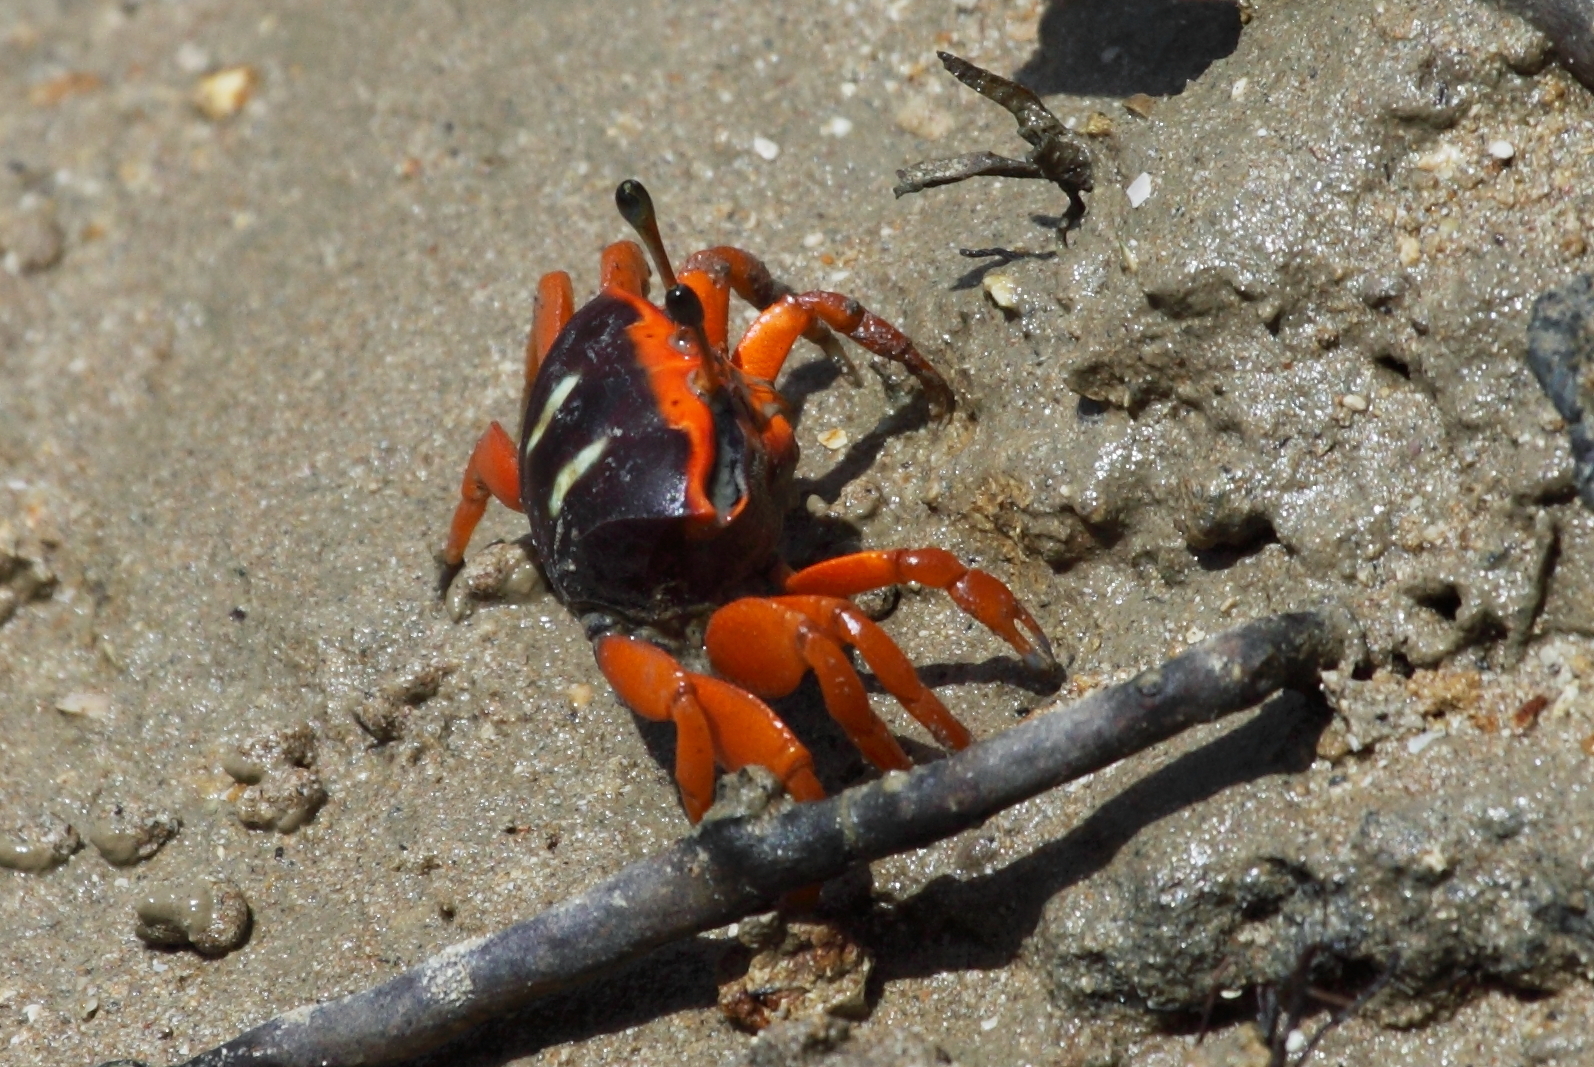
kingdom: Animalia
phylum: Arthropoda
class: Malacostraca
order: Decapoda
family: Ocypodidae
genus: Tubuca
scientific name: Tubuca flammula
